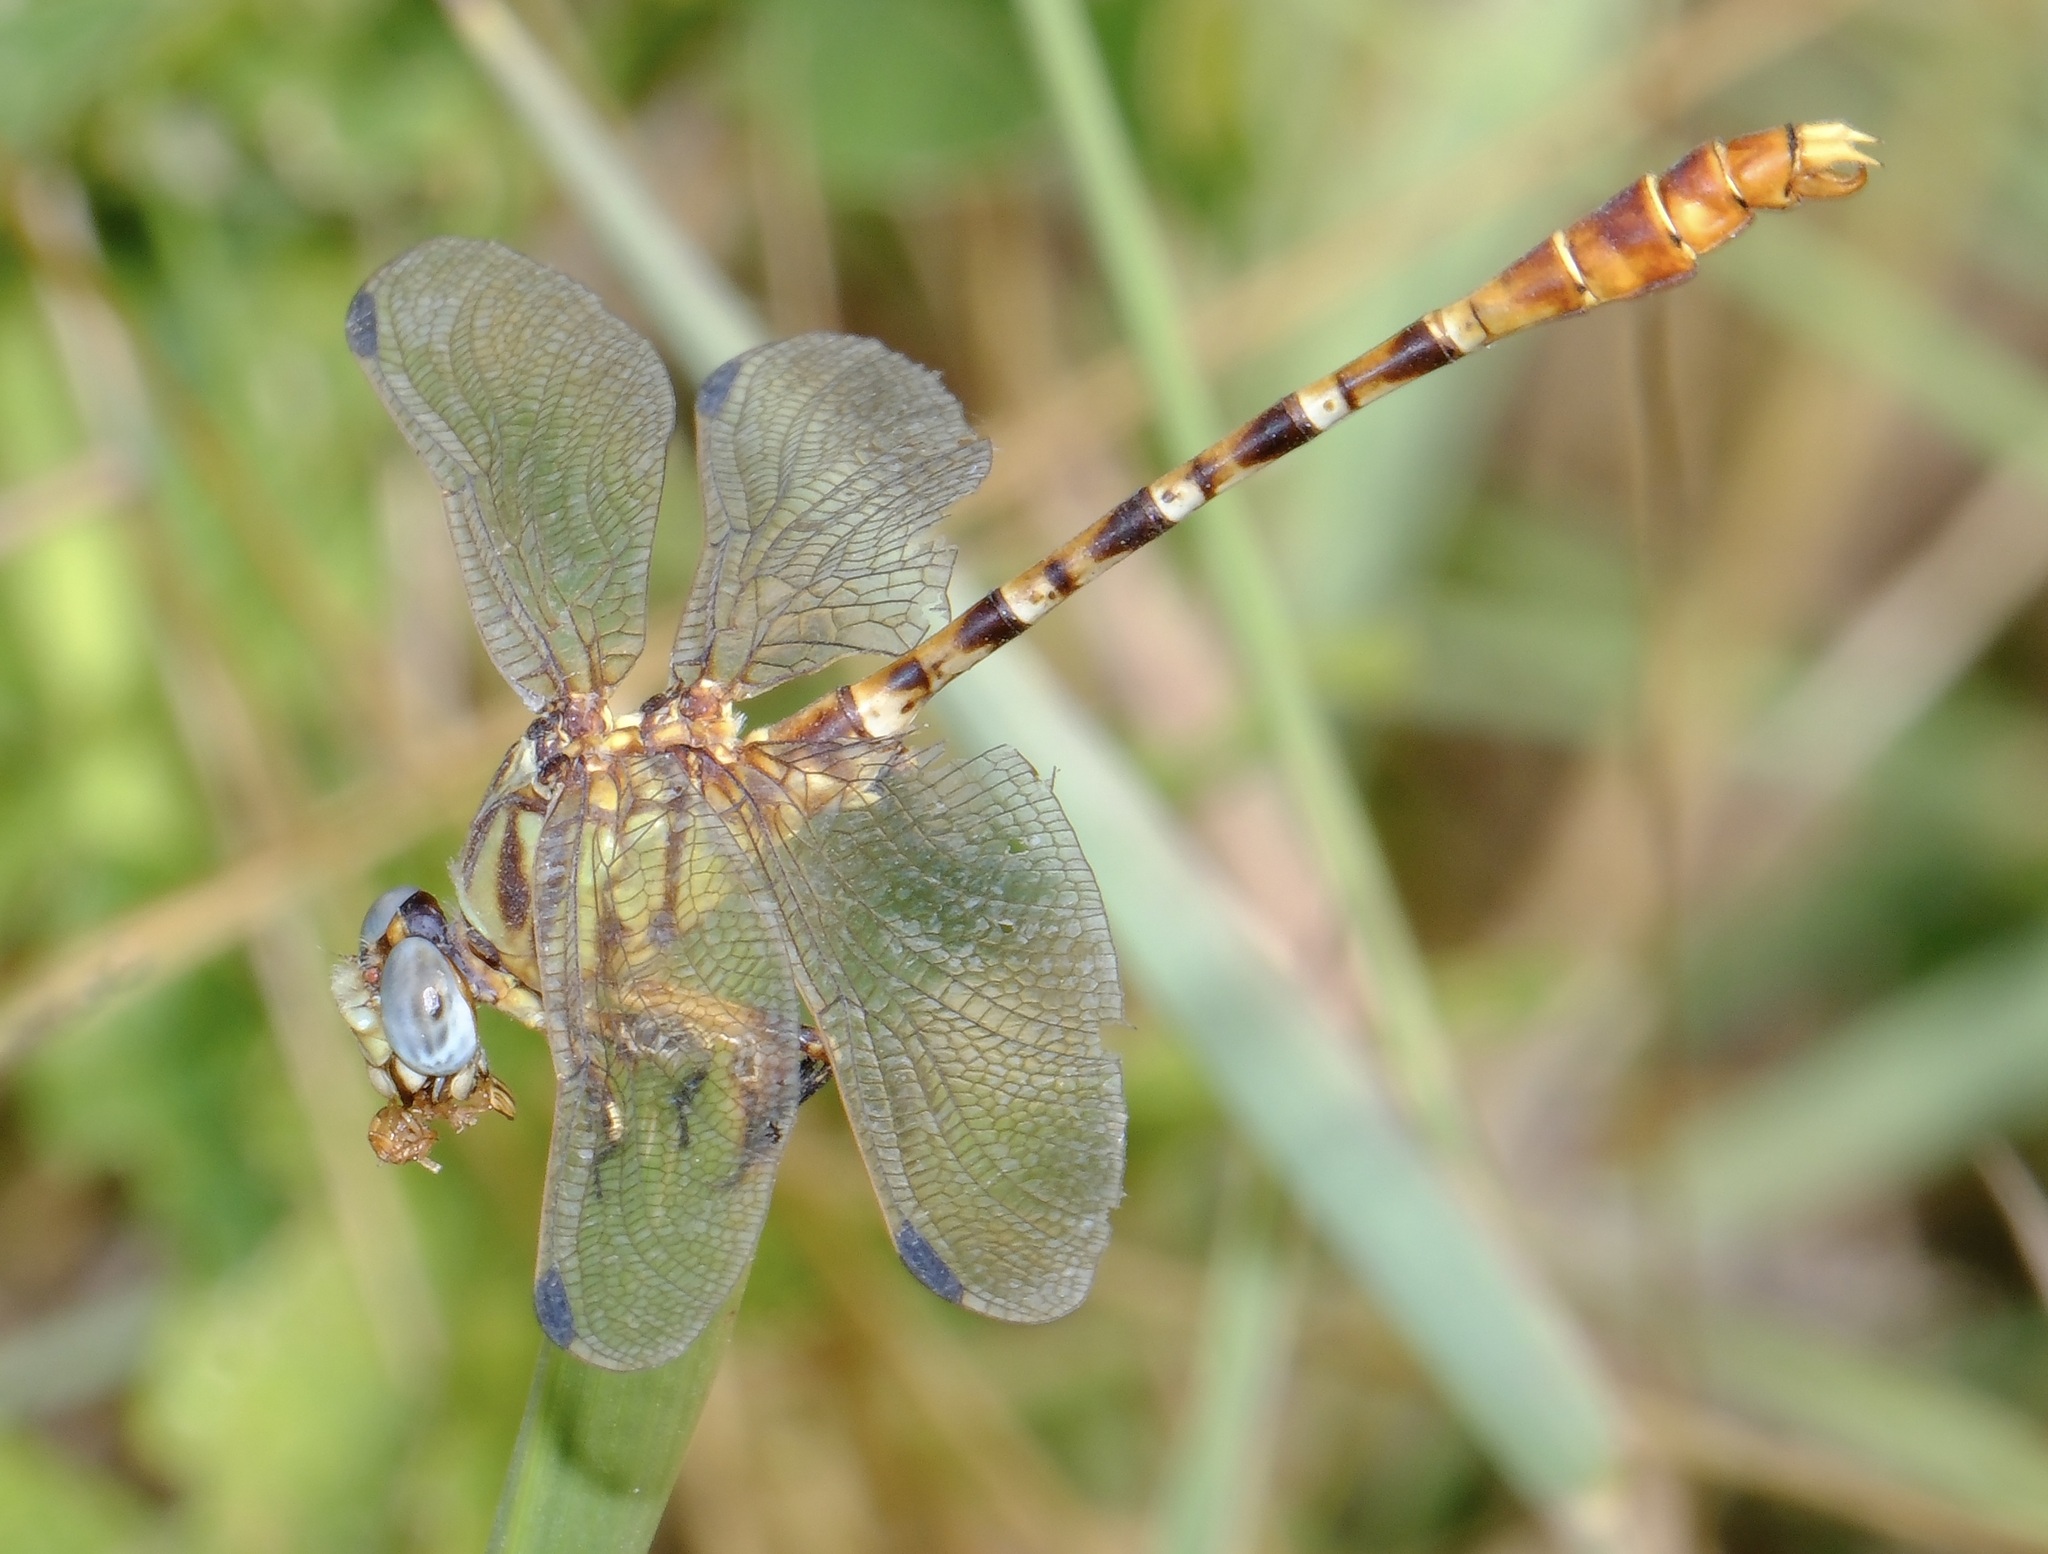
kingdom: Animalia
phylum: Arthropoda
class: Insecta
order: Odonata
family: Gomphidae
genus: Erpetogomphus
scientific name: Erpetogomphus designatus
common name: Eastern ringtail
